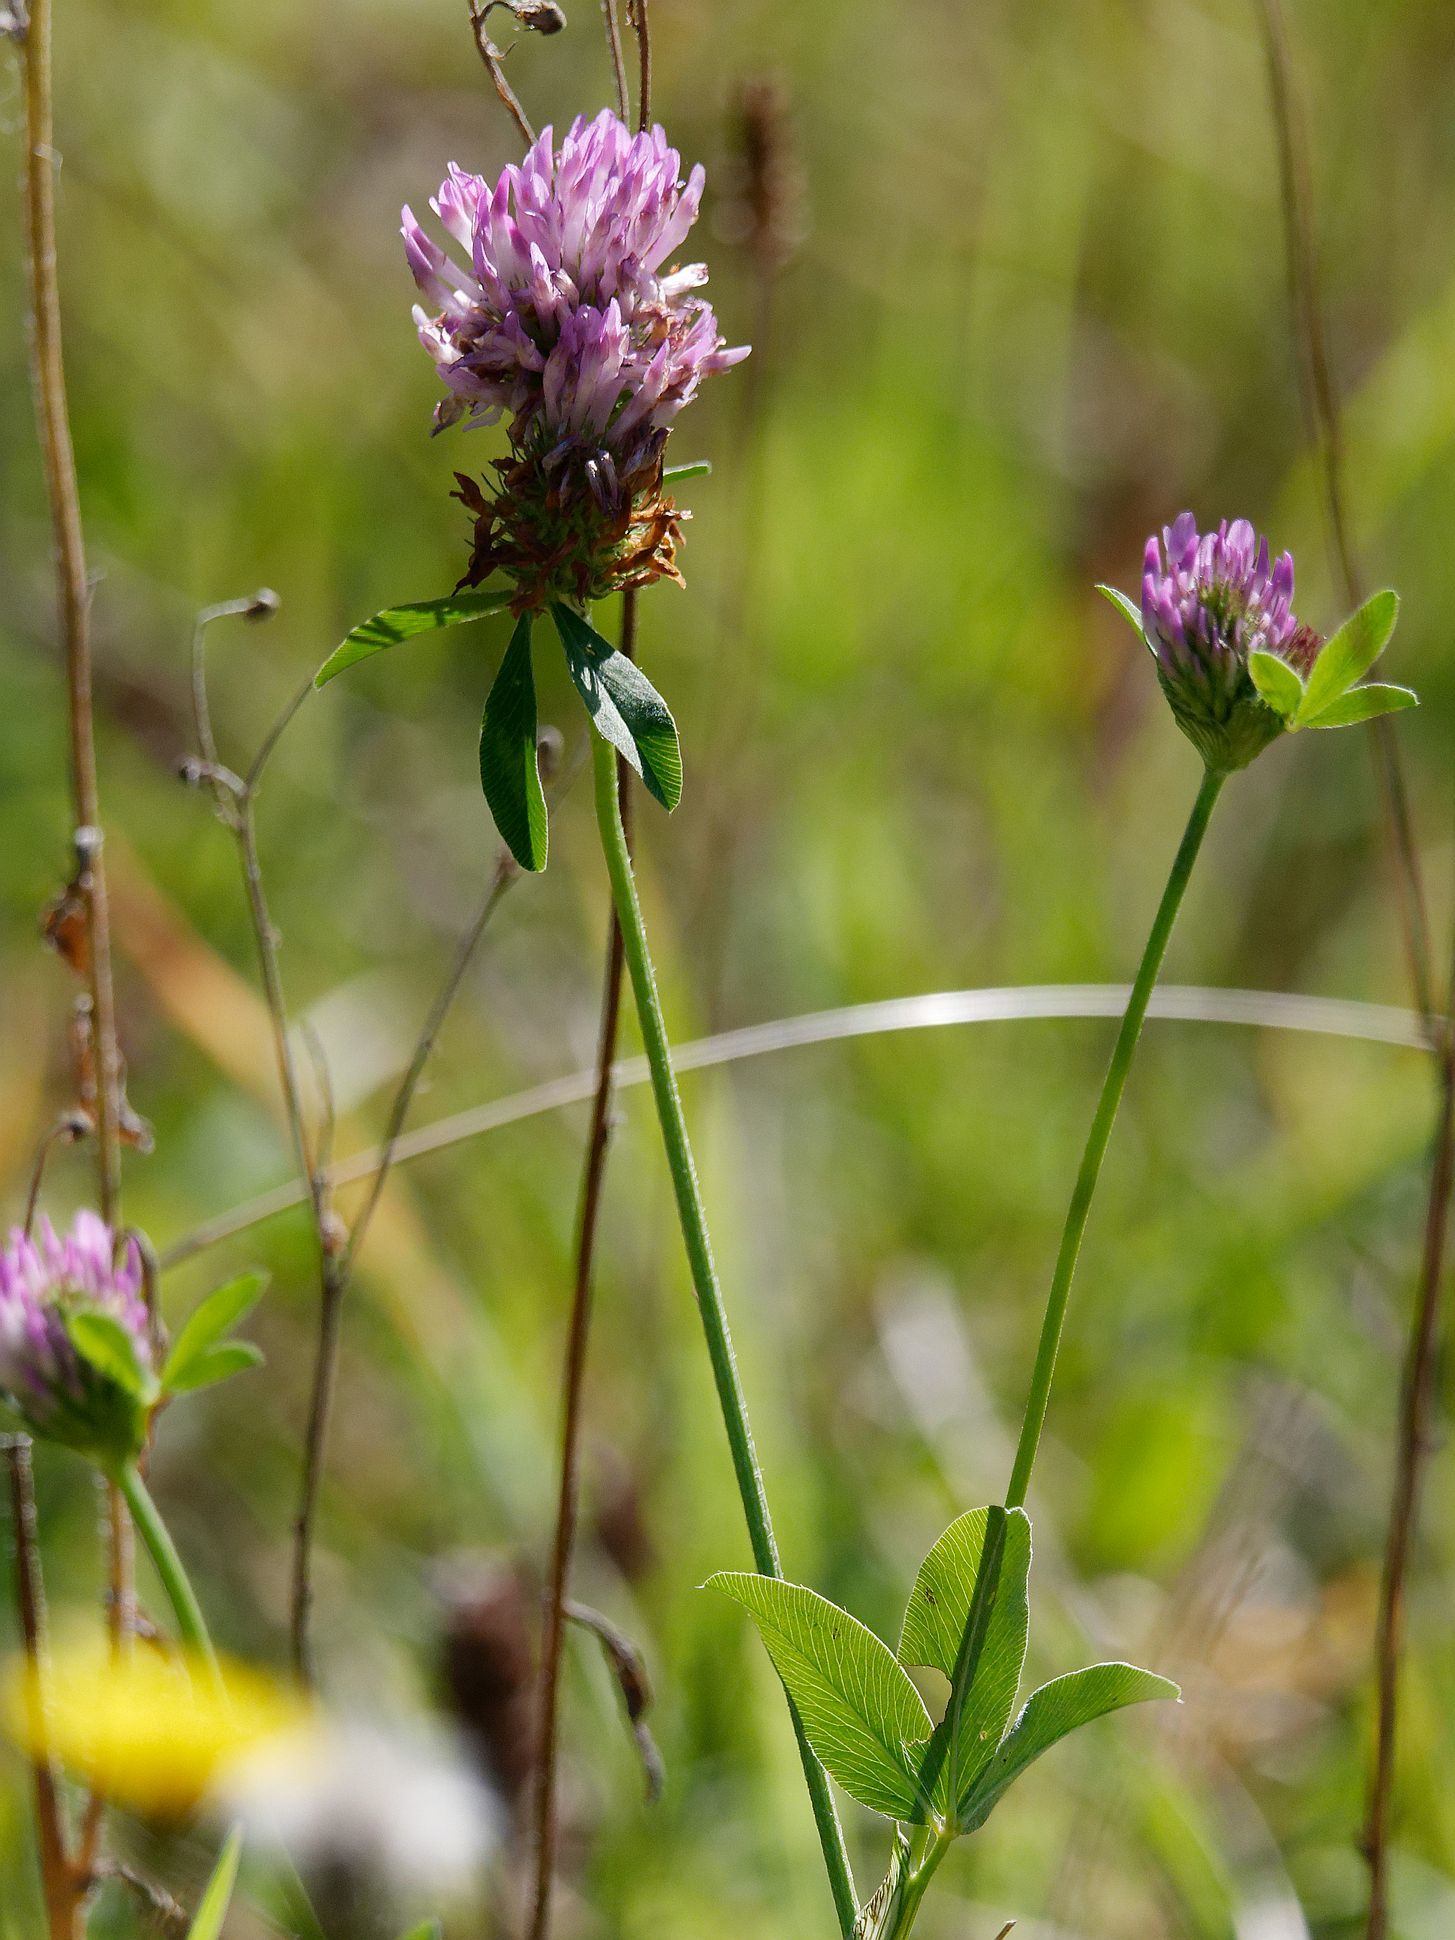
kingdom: Plantae
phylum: Tracheophyta
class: Magnoliopsida
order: Fabales
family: Fabaceae
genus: Trifolium
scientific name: Trifolium pratense
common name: Red clover
